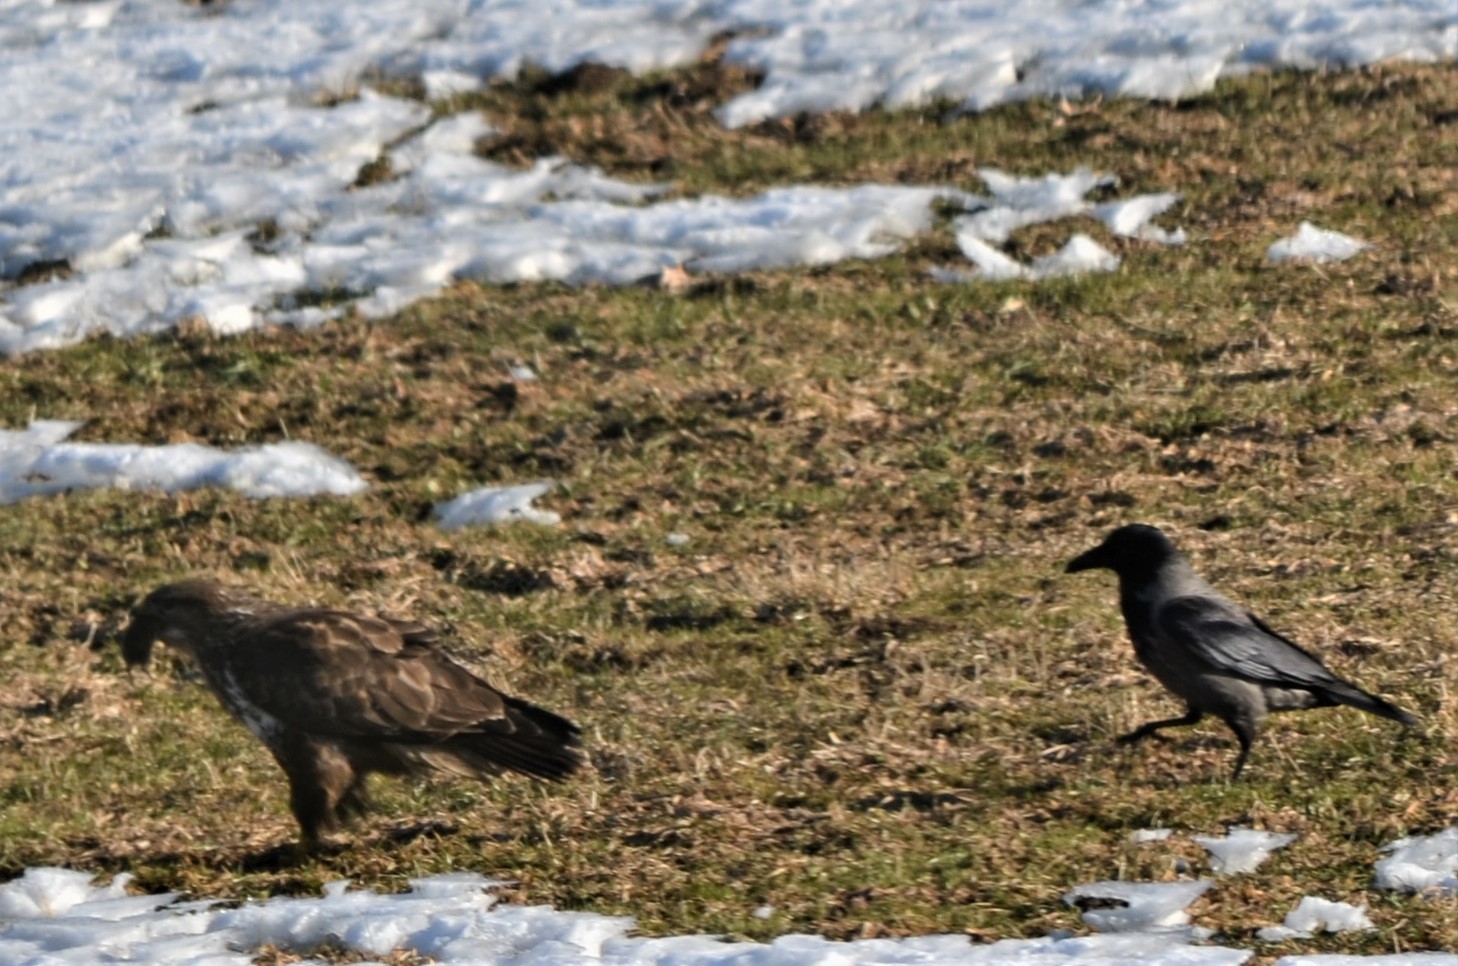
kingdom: Animalia
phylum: Chordata
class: Aves
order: Accipitriformes
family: Accipitridae
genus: Buteo
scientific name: Buteo buteo
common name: Common buzzard
